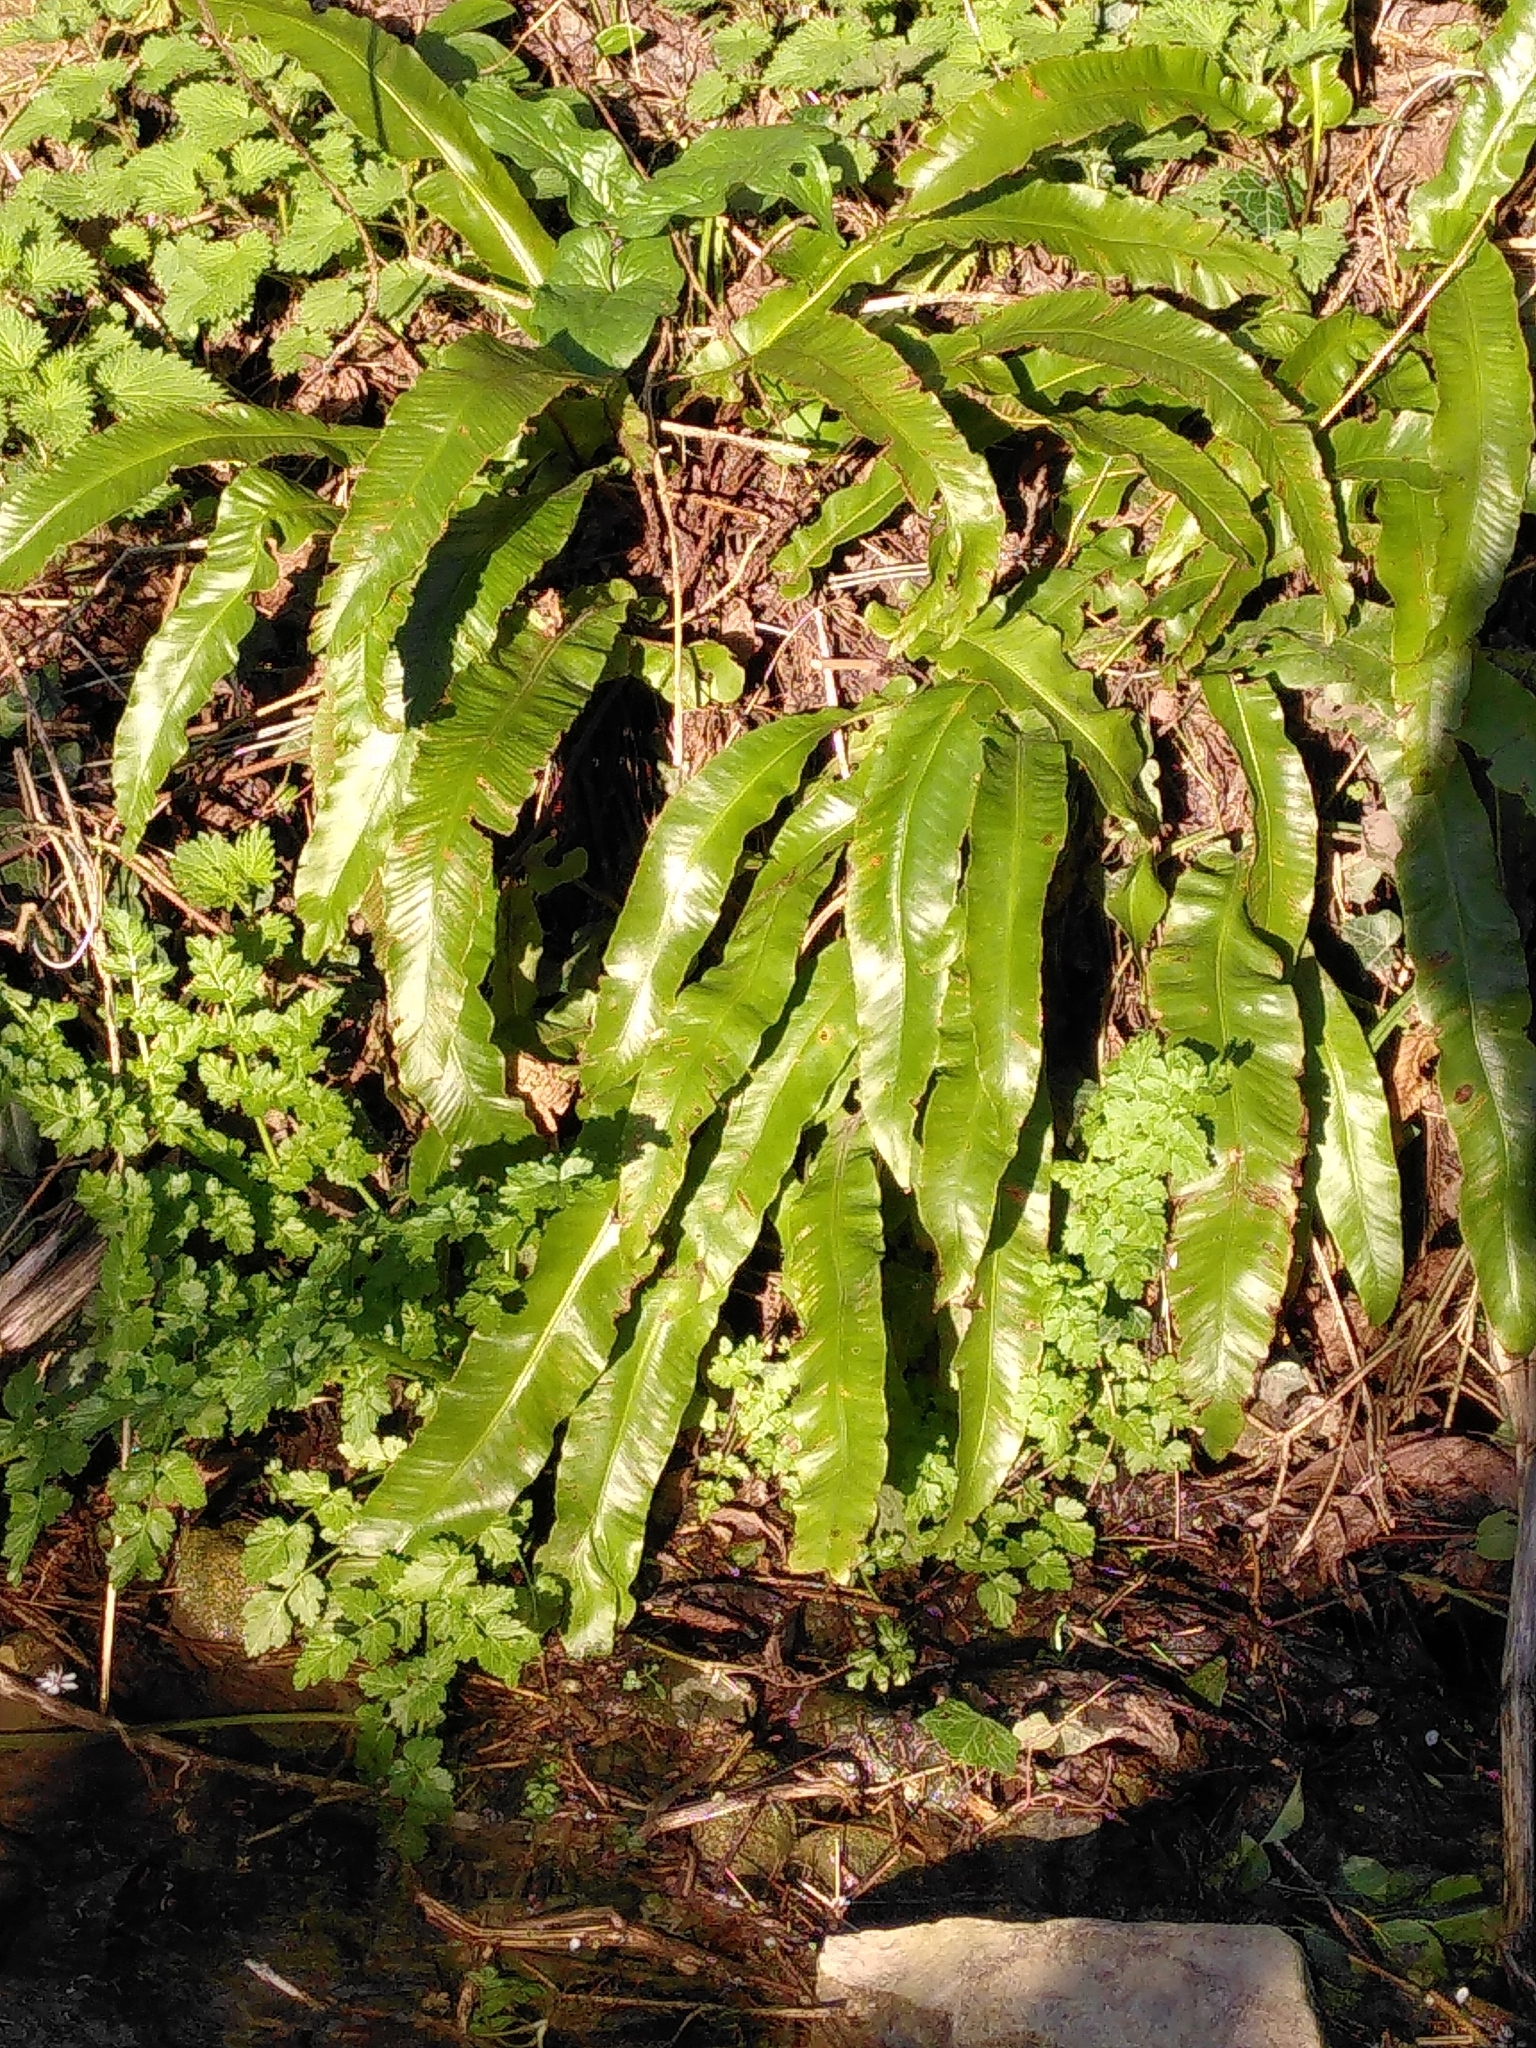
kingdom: Plantae
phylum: Tracheophyta
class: Polypodiopsida
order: Polypodiales
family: Aspleniaceae
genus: Asplenium
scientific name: Asplenium scolopendrium
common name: Hart's-tongue fern
